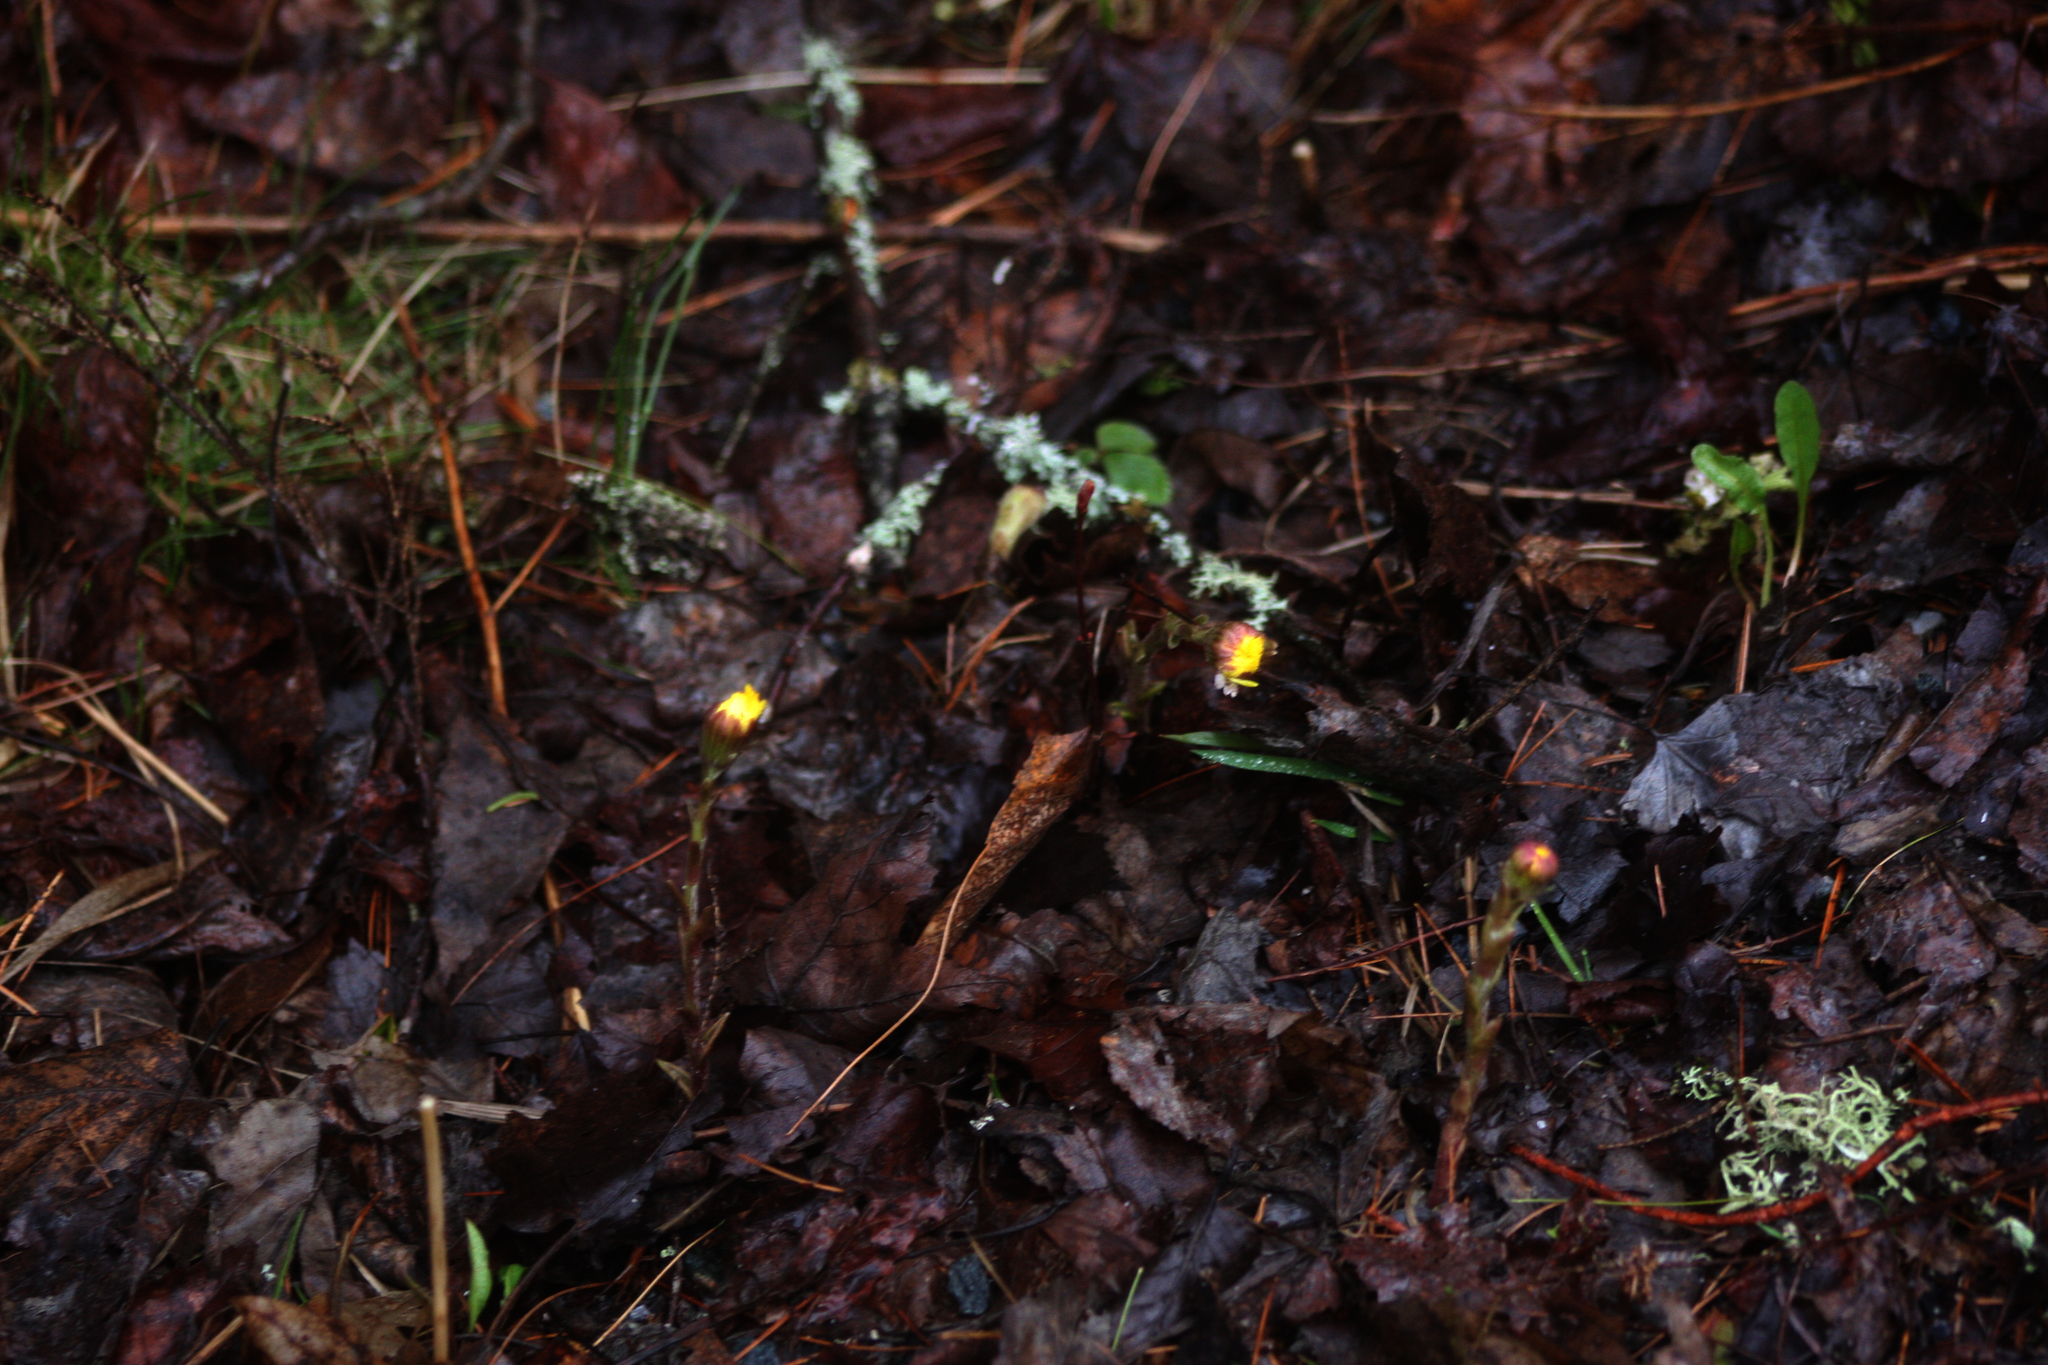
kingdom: Plantae
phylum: Tracheophyta
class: Magnoliopsida
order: Asterales
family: Asteraceae
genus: Tussilago
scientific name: Tussilago farfara
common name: Coltsfoot
